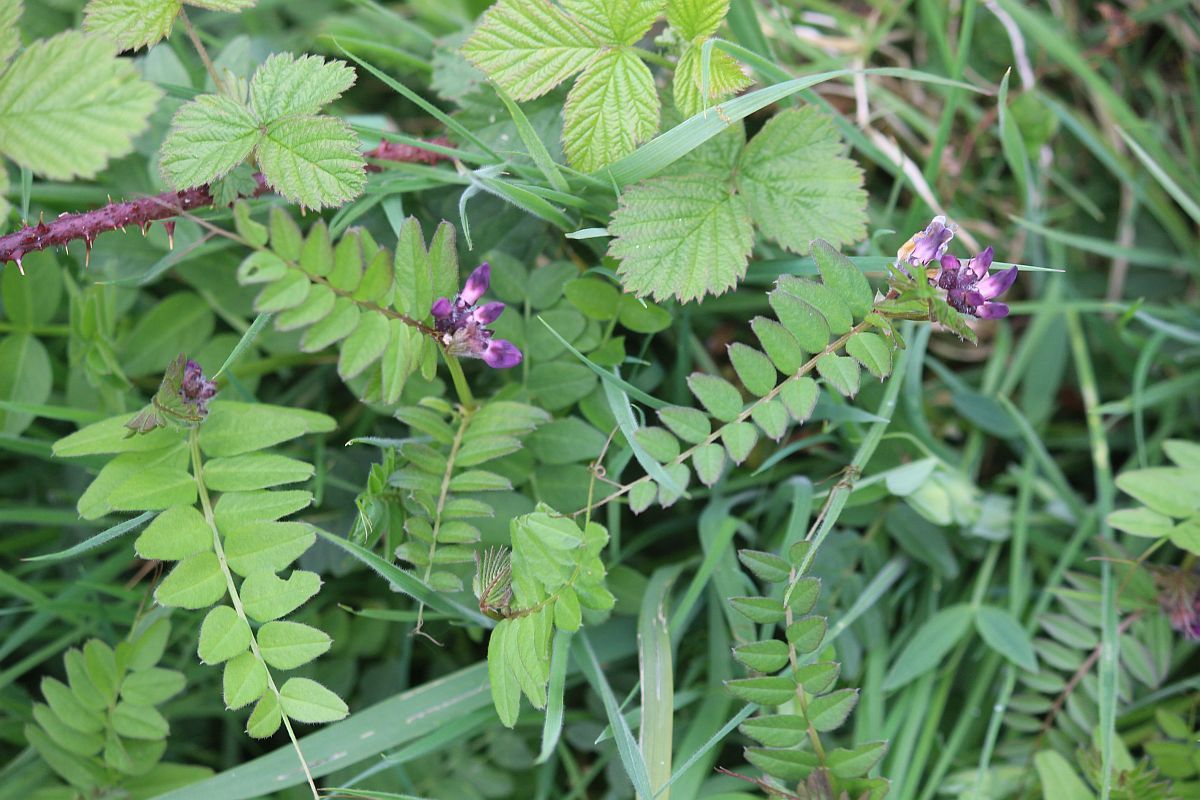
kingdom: Plantae
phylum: Tracheophyta
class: Magnoliopsida
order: Fabales
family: Fabaceae
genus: Vicia
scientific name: Vicia sepium
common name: Bush vetch
